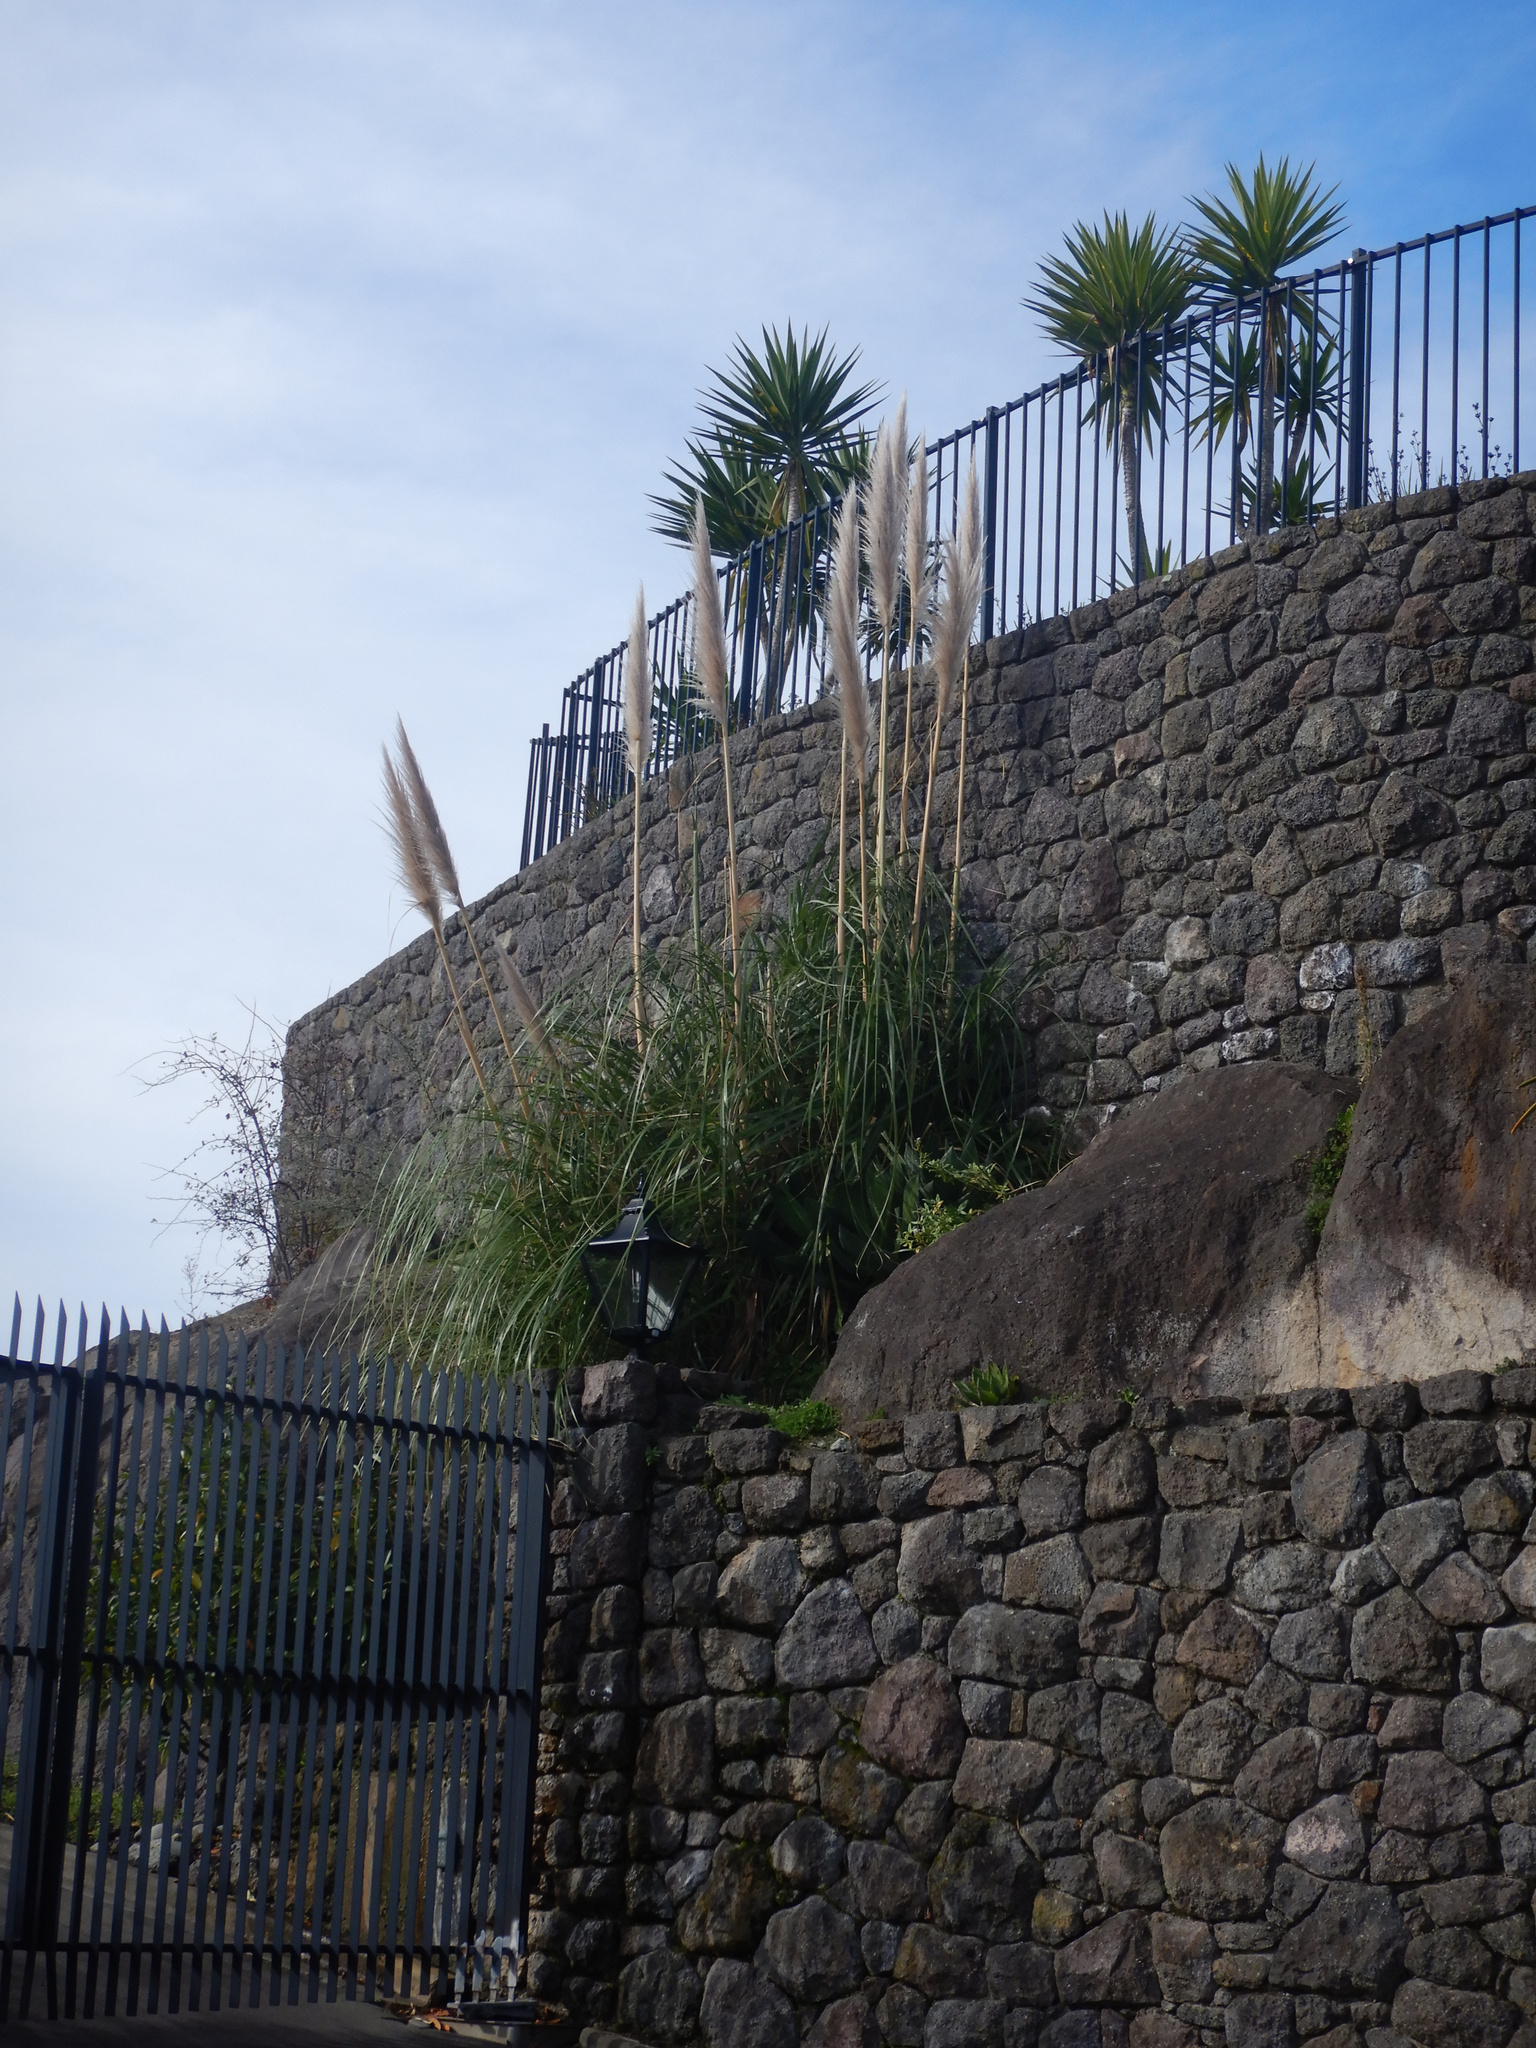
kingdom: Plantae
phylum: Tracheophyta
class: Liliopsida
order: Poales
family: Poaceae
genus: Cortaderia
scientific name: Cortaderia selloana
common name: Uruguayan pampas grass
